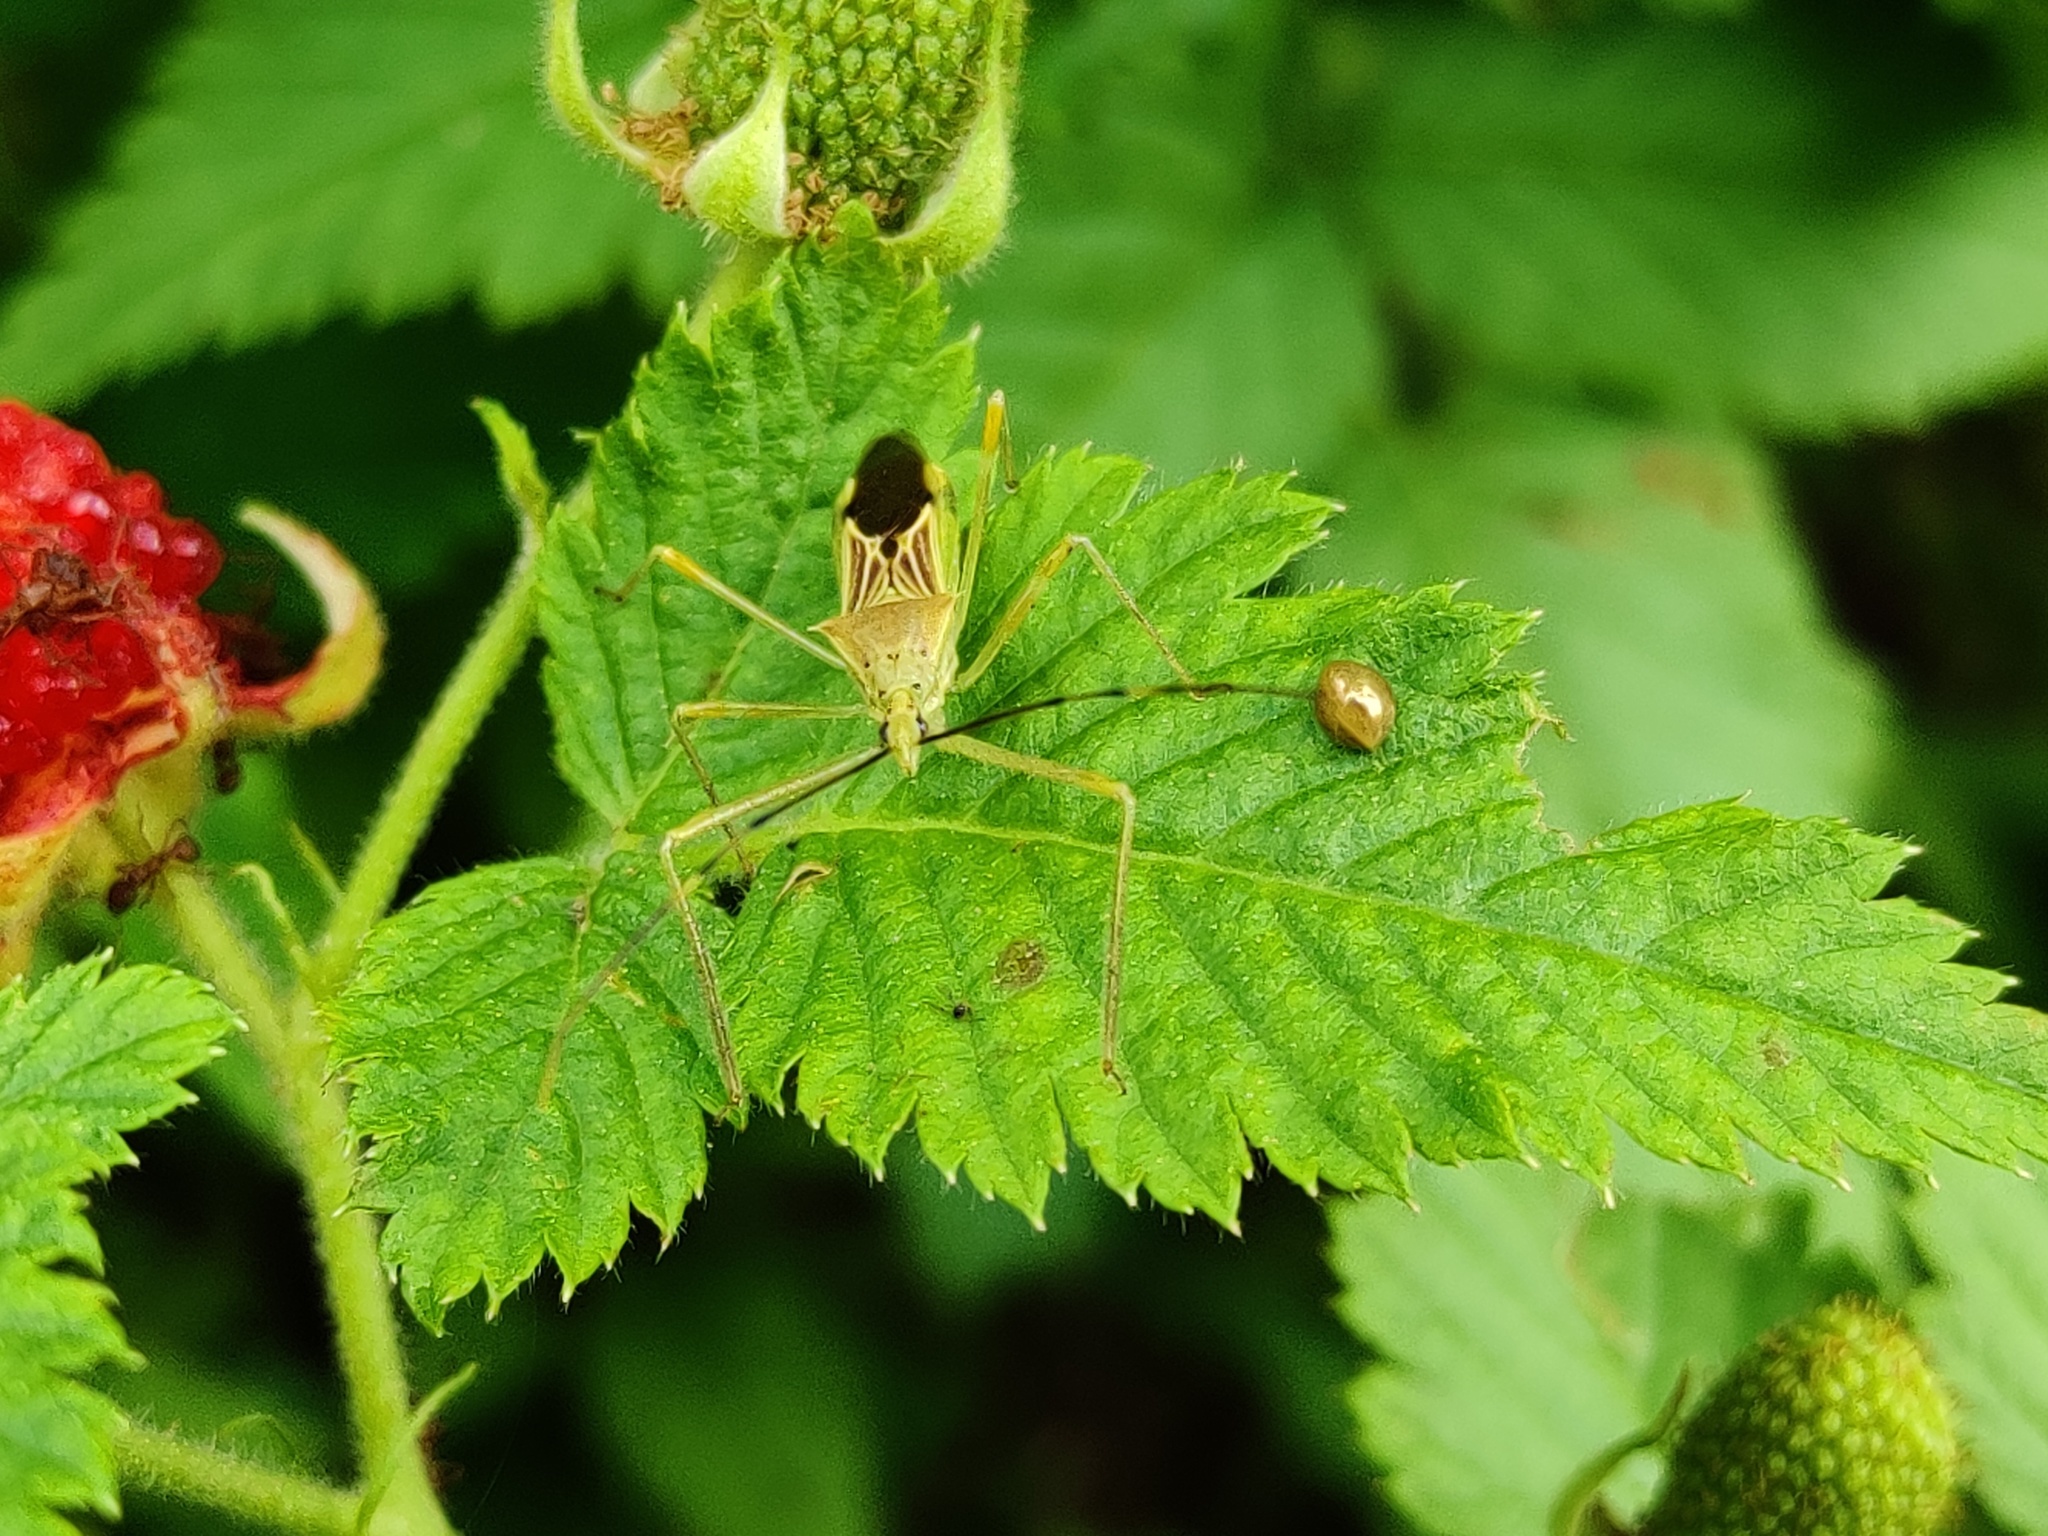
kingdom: Animalia
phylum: Arthropoda
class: Insecta
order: Hemiptera
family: Reduviidae
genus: Zelus
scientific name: Zelus ambulans
